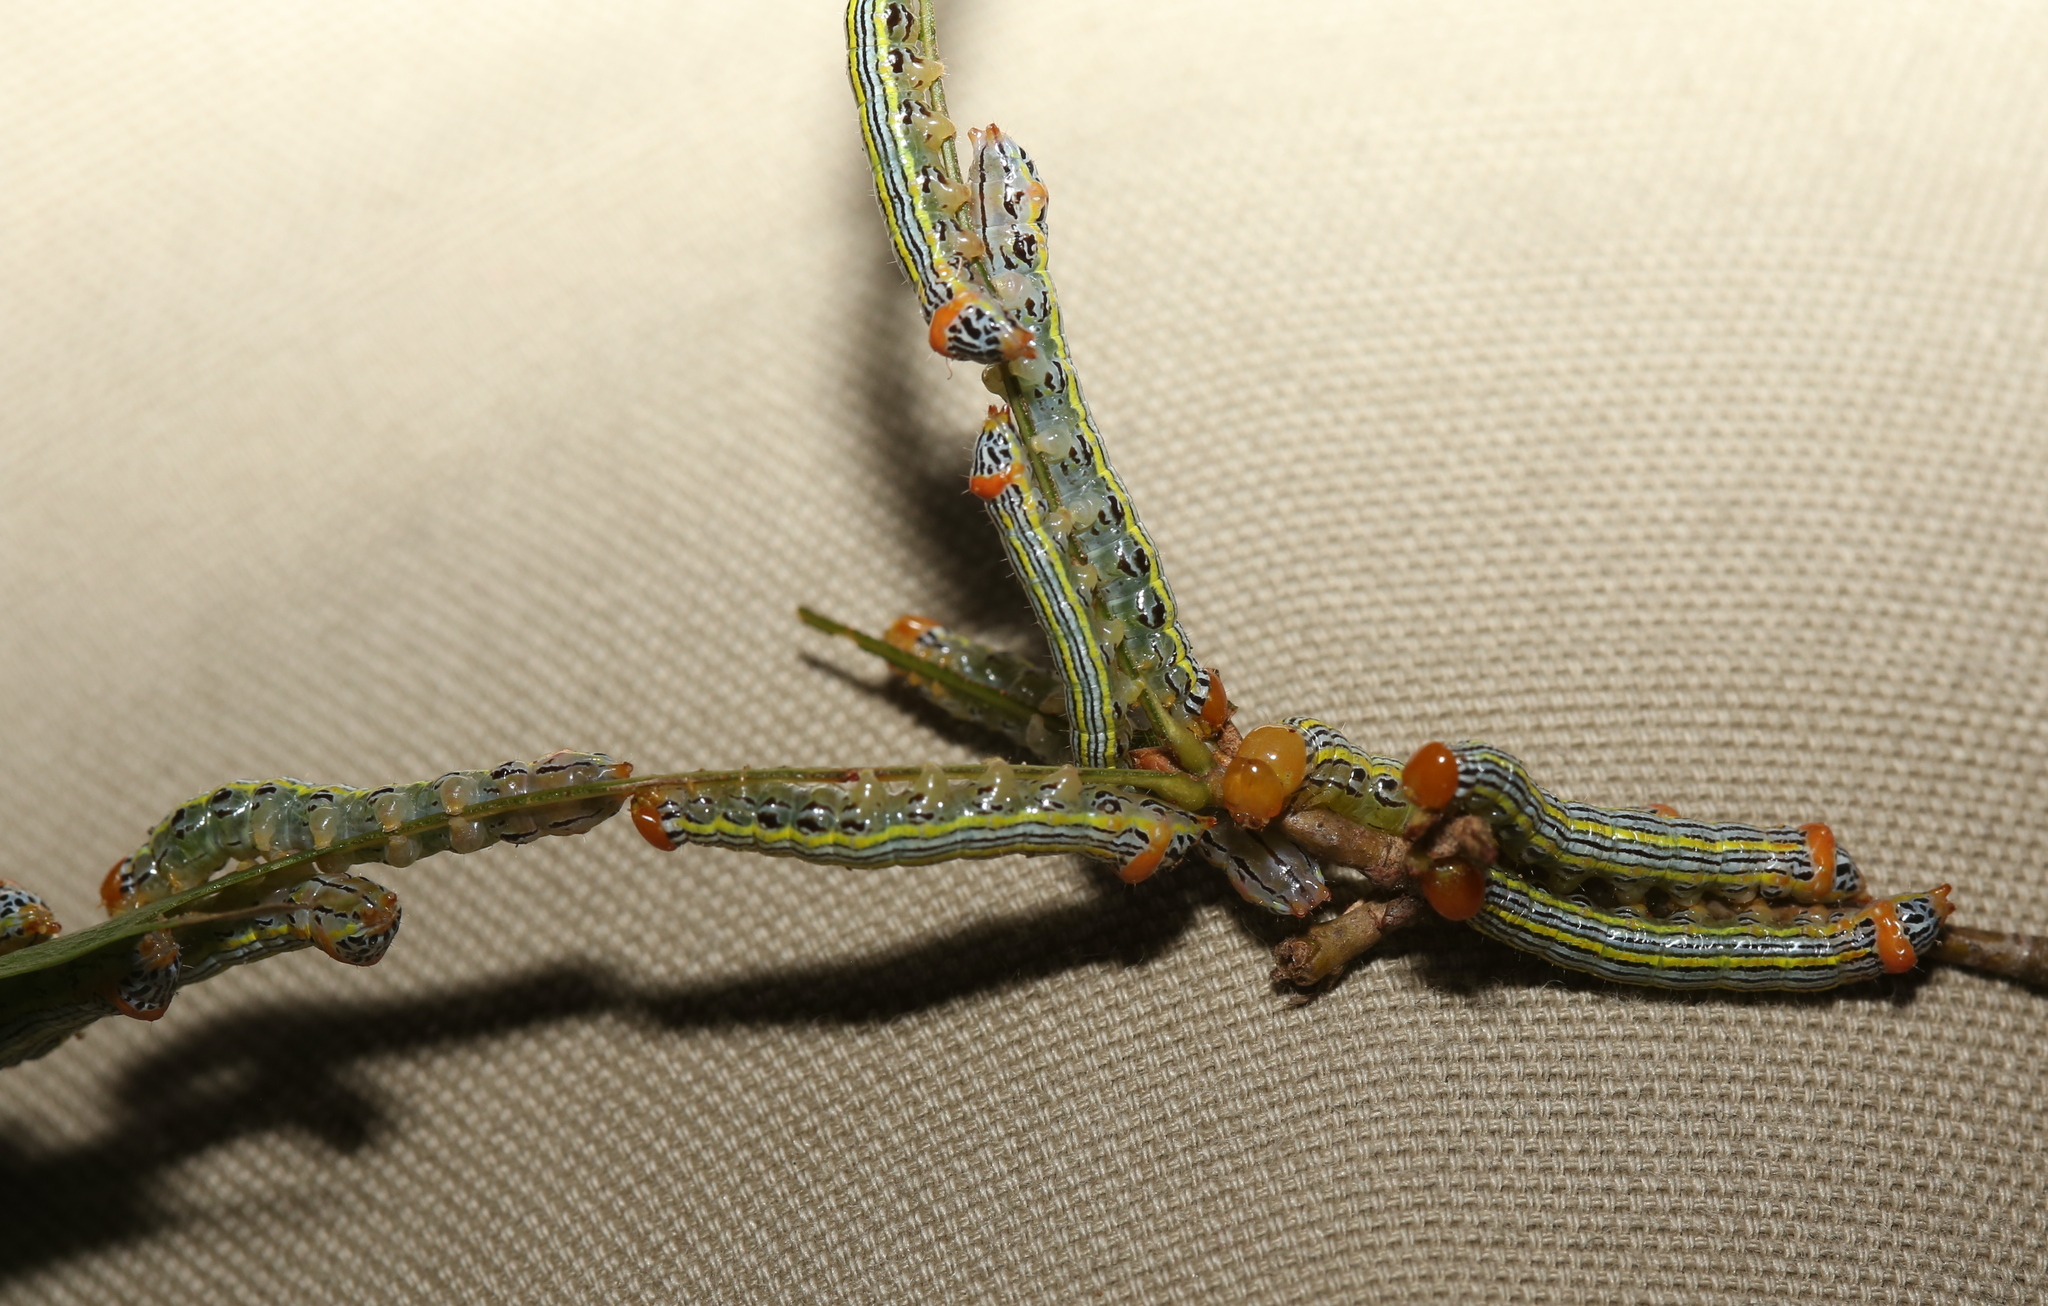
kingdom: Animalia
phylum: Arthropoda
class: Insecta
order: Lepidoptera
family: Notodontidae
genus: Symmerista
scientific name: Symmerista albifrons
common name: White-headed prominent
